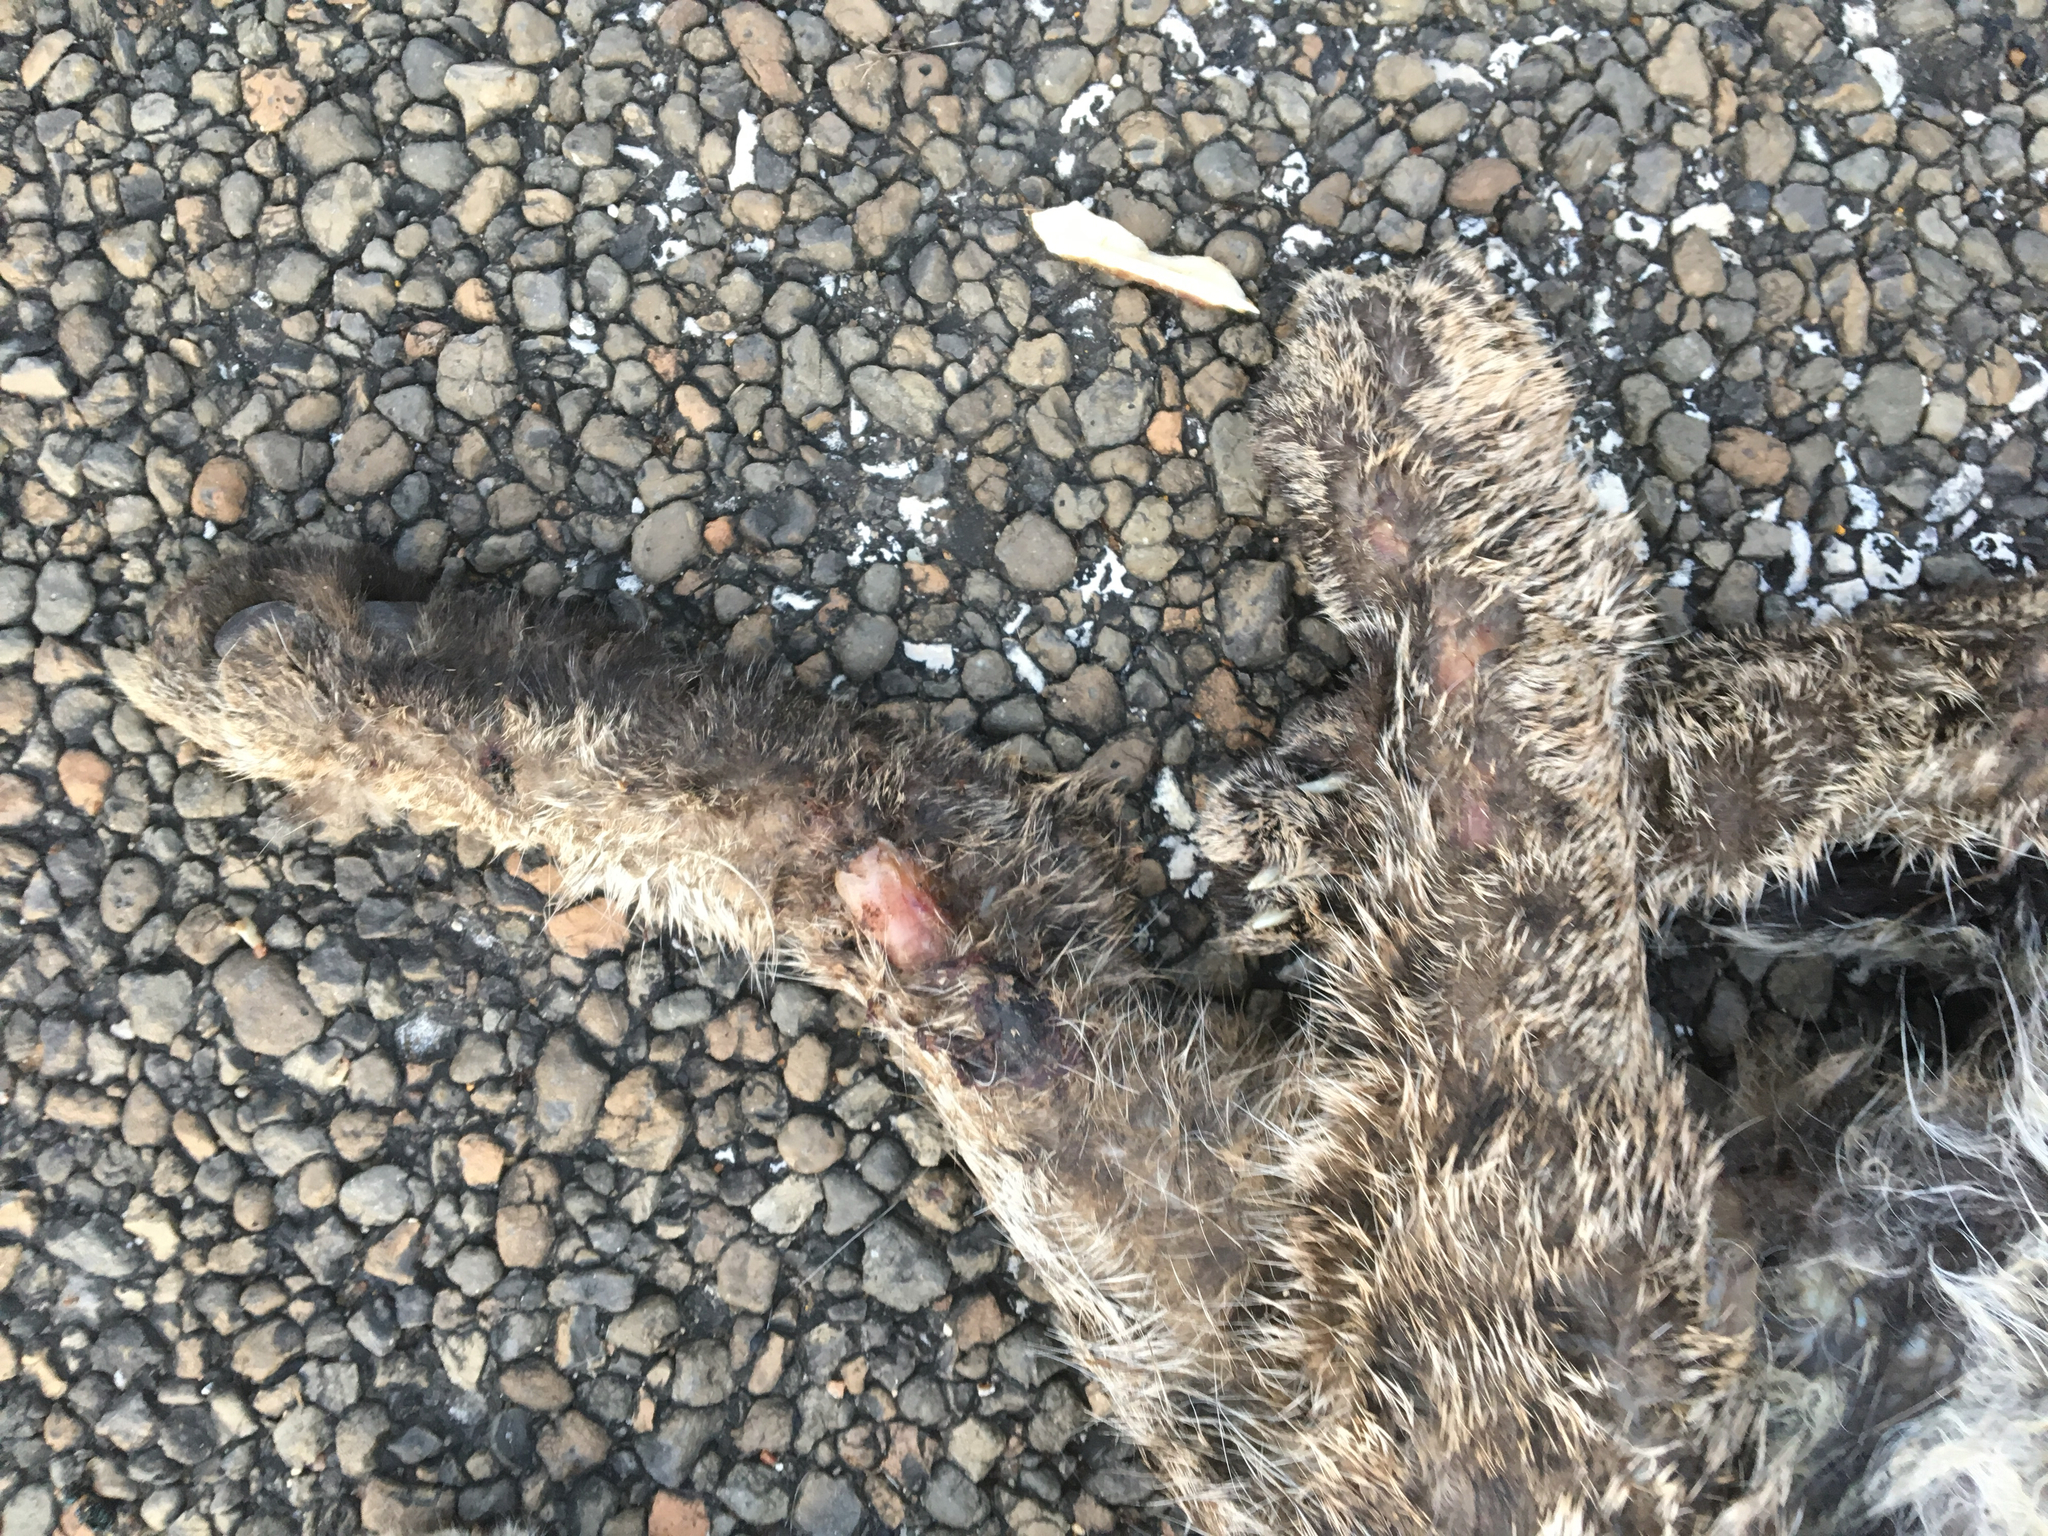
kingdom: Animalia
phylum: Chordata
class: Mammalia
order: Carnivora
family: Felidae
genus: Lynx
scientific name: Lynx rufus
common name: Bobcat
